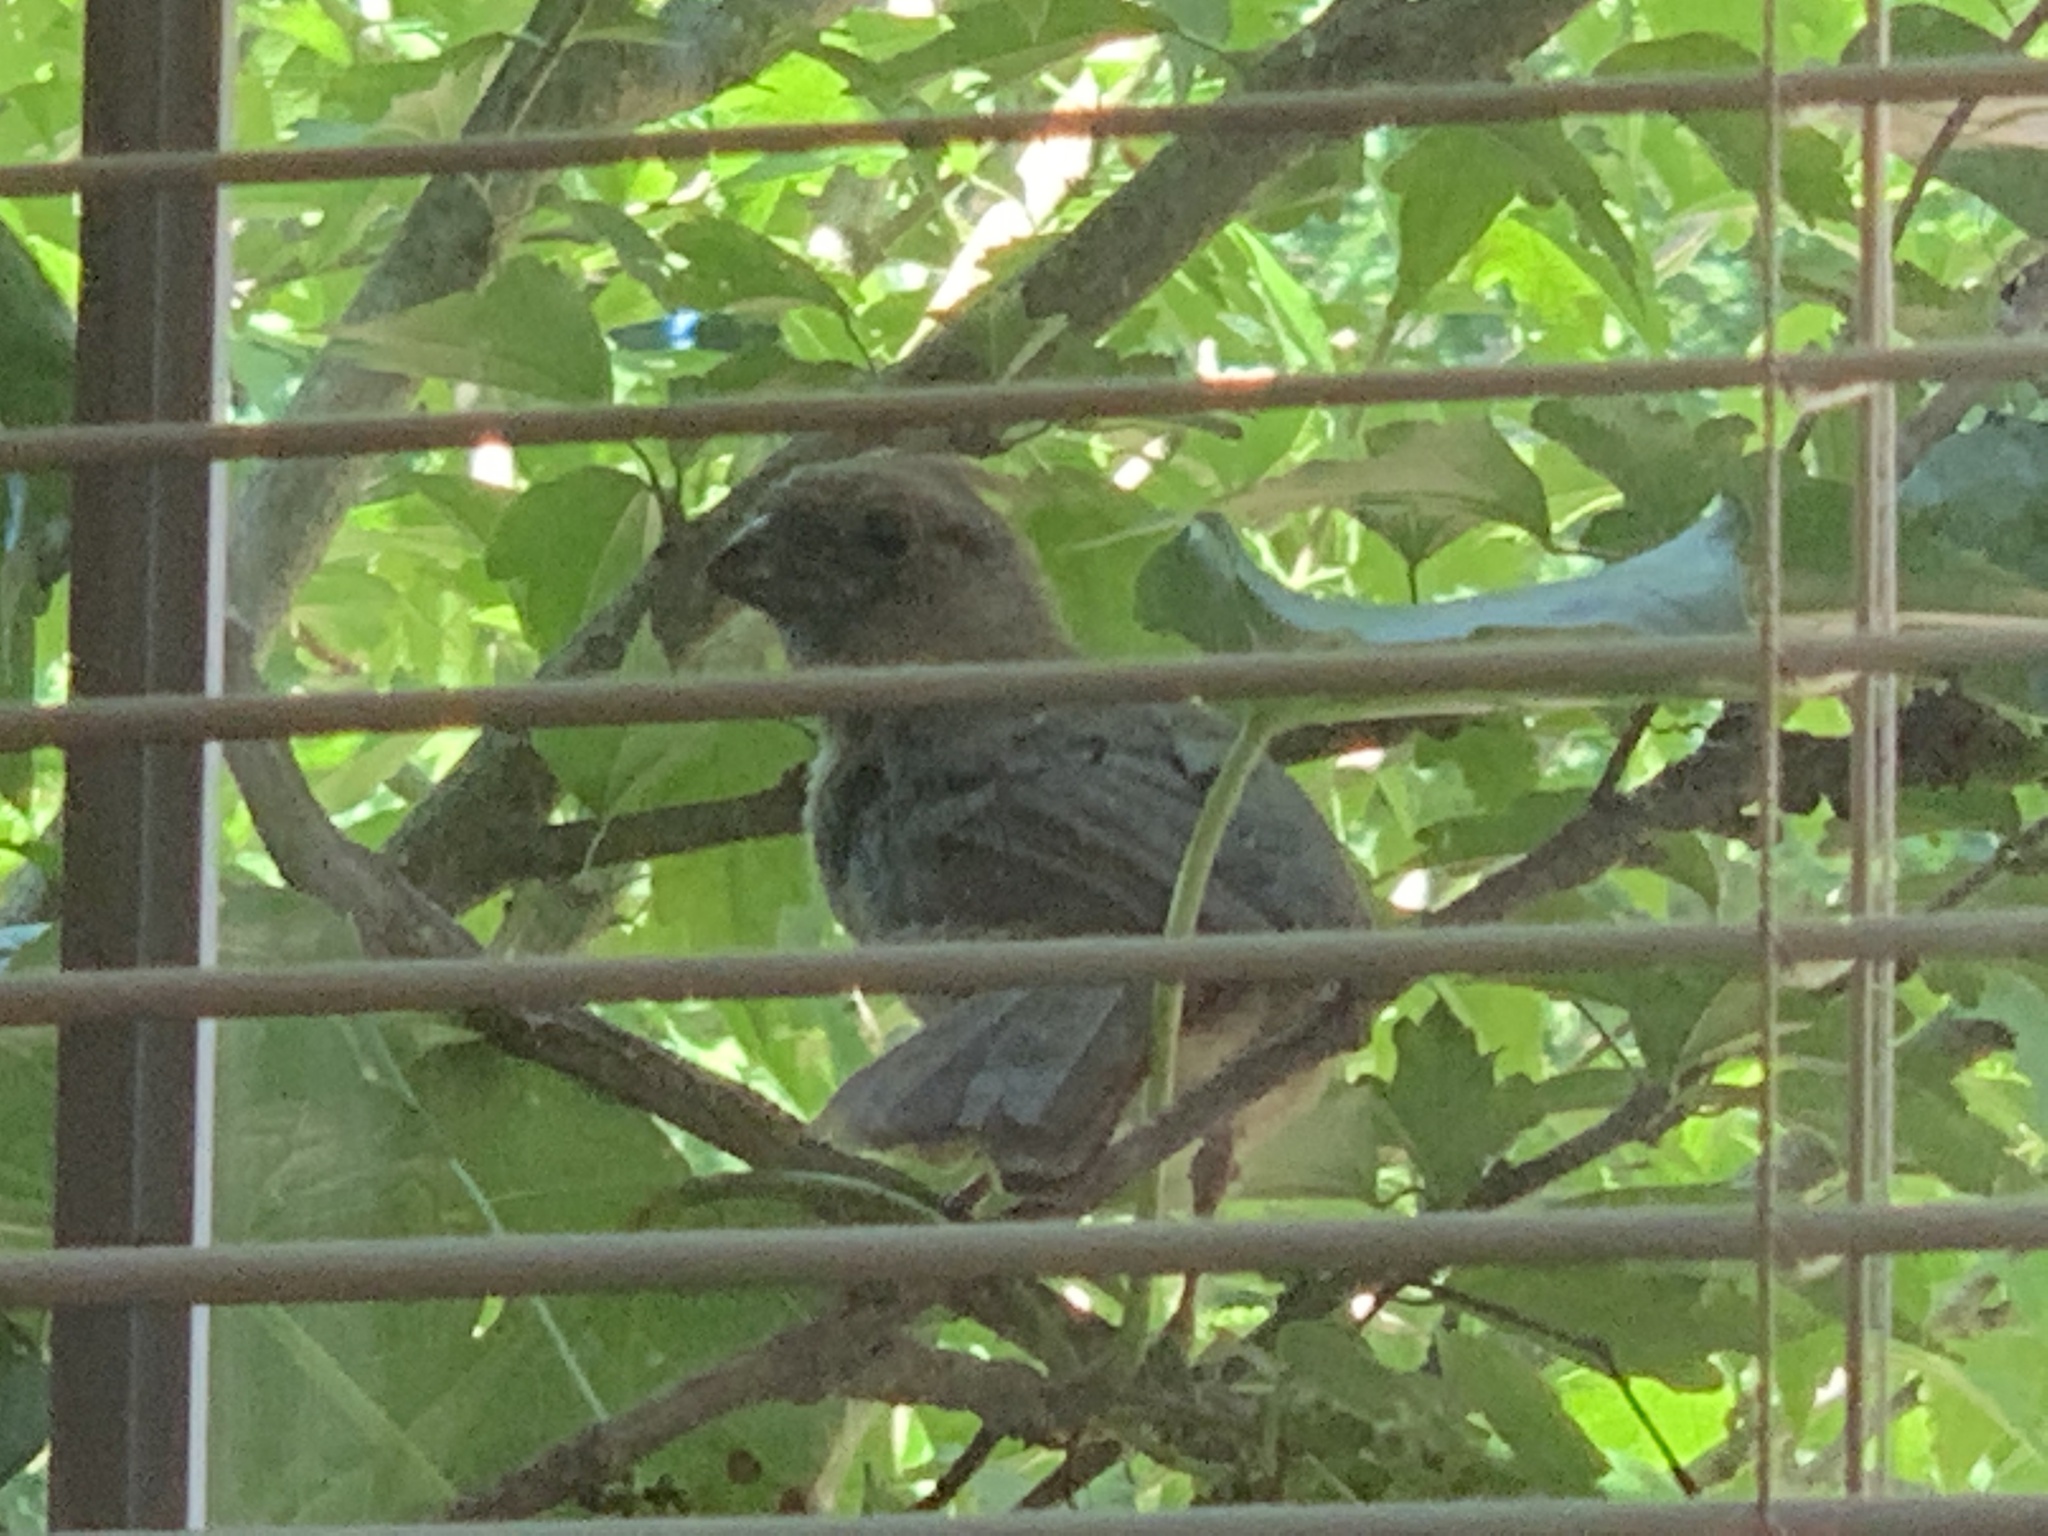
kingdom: Animalia
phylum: Chordata
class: Aves
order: Passeriformes
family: Cardinalidae
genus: Cardinalis
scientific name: Cardinalis cardinalis
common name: Northern cardinal
